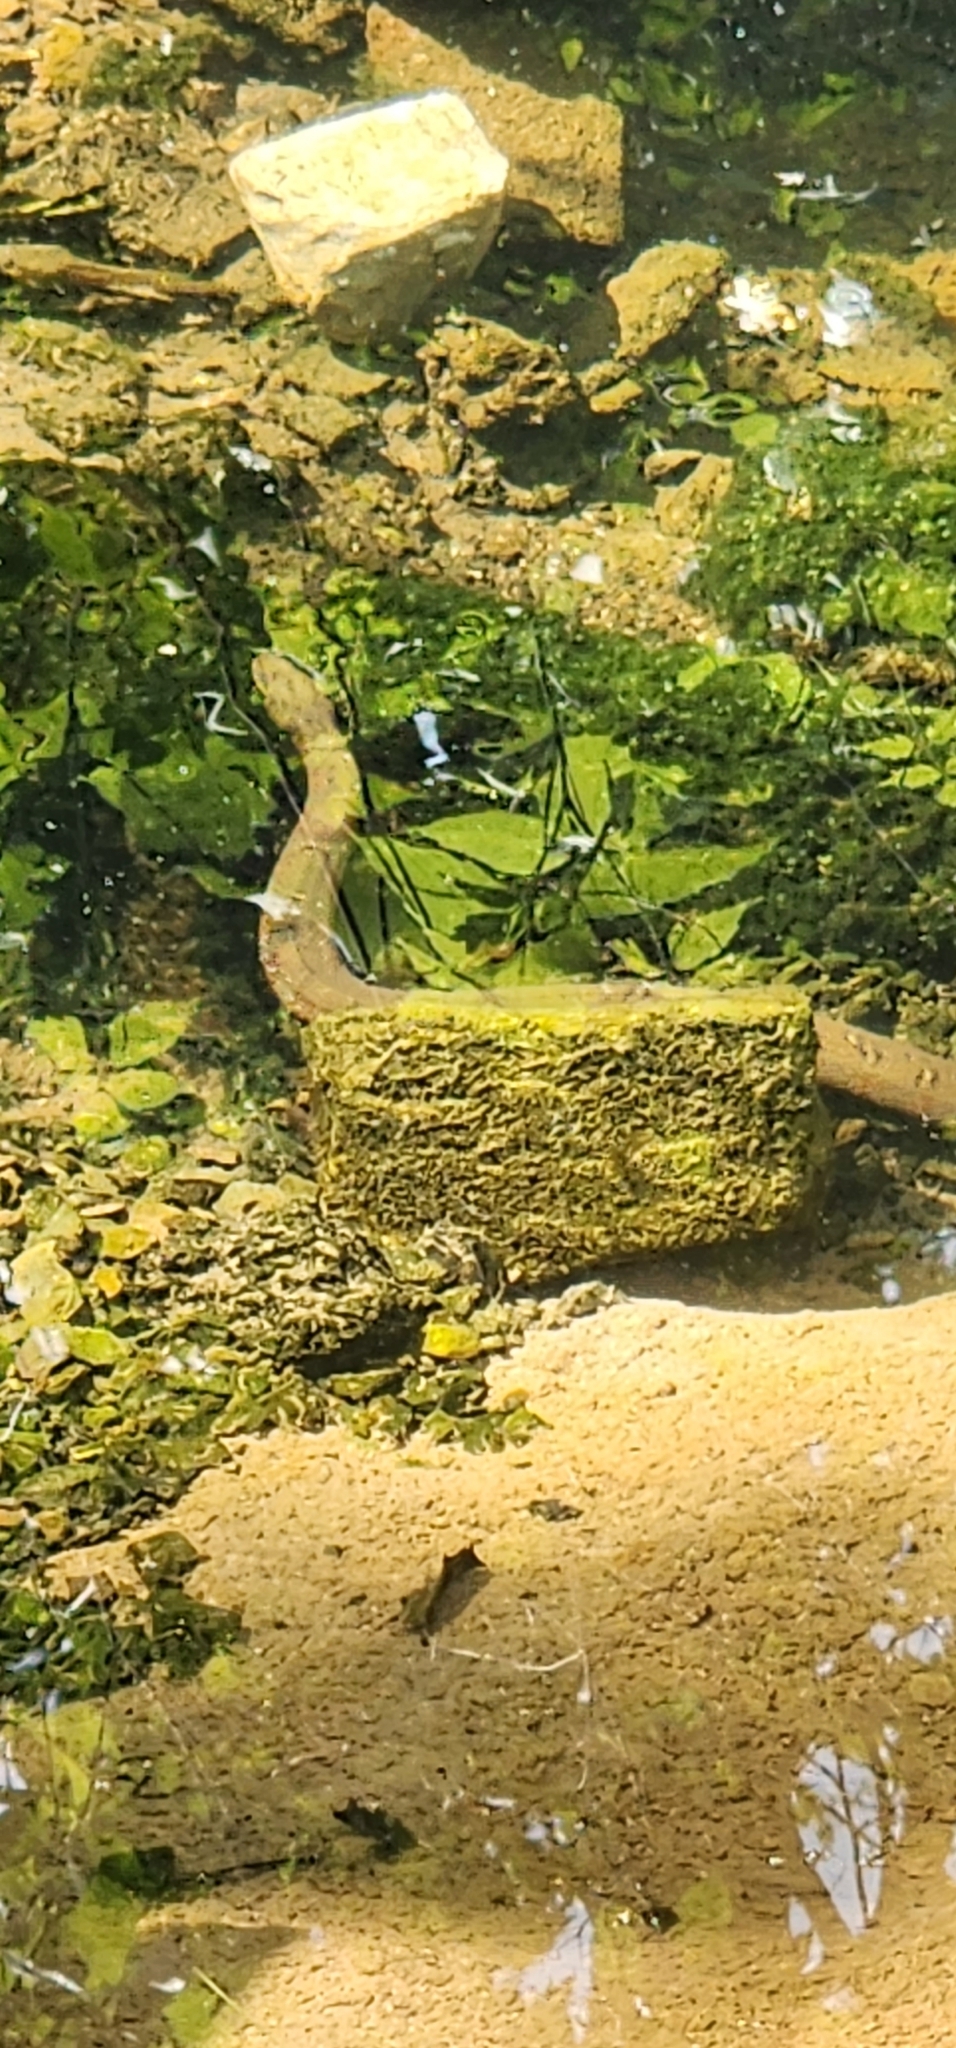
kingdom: Animalia
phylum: Chordata
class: Squamata
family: Colubridae
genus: Nerodia
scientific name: Nerodia sipedon
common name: Northern water snake
